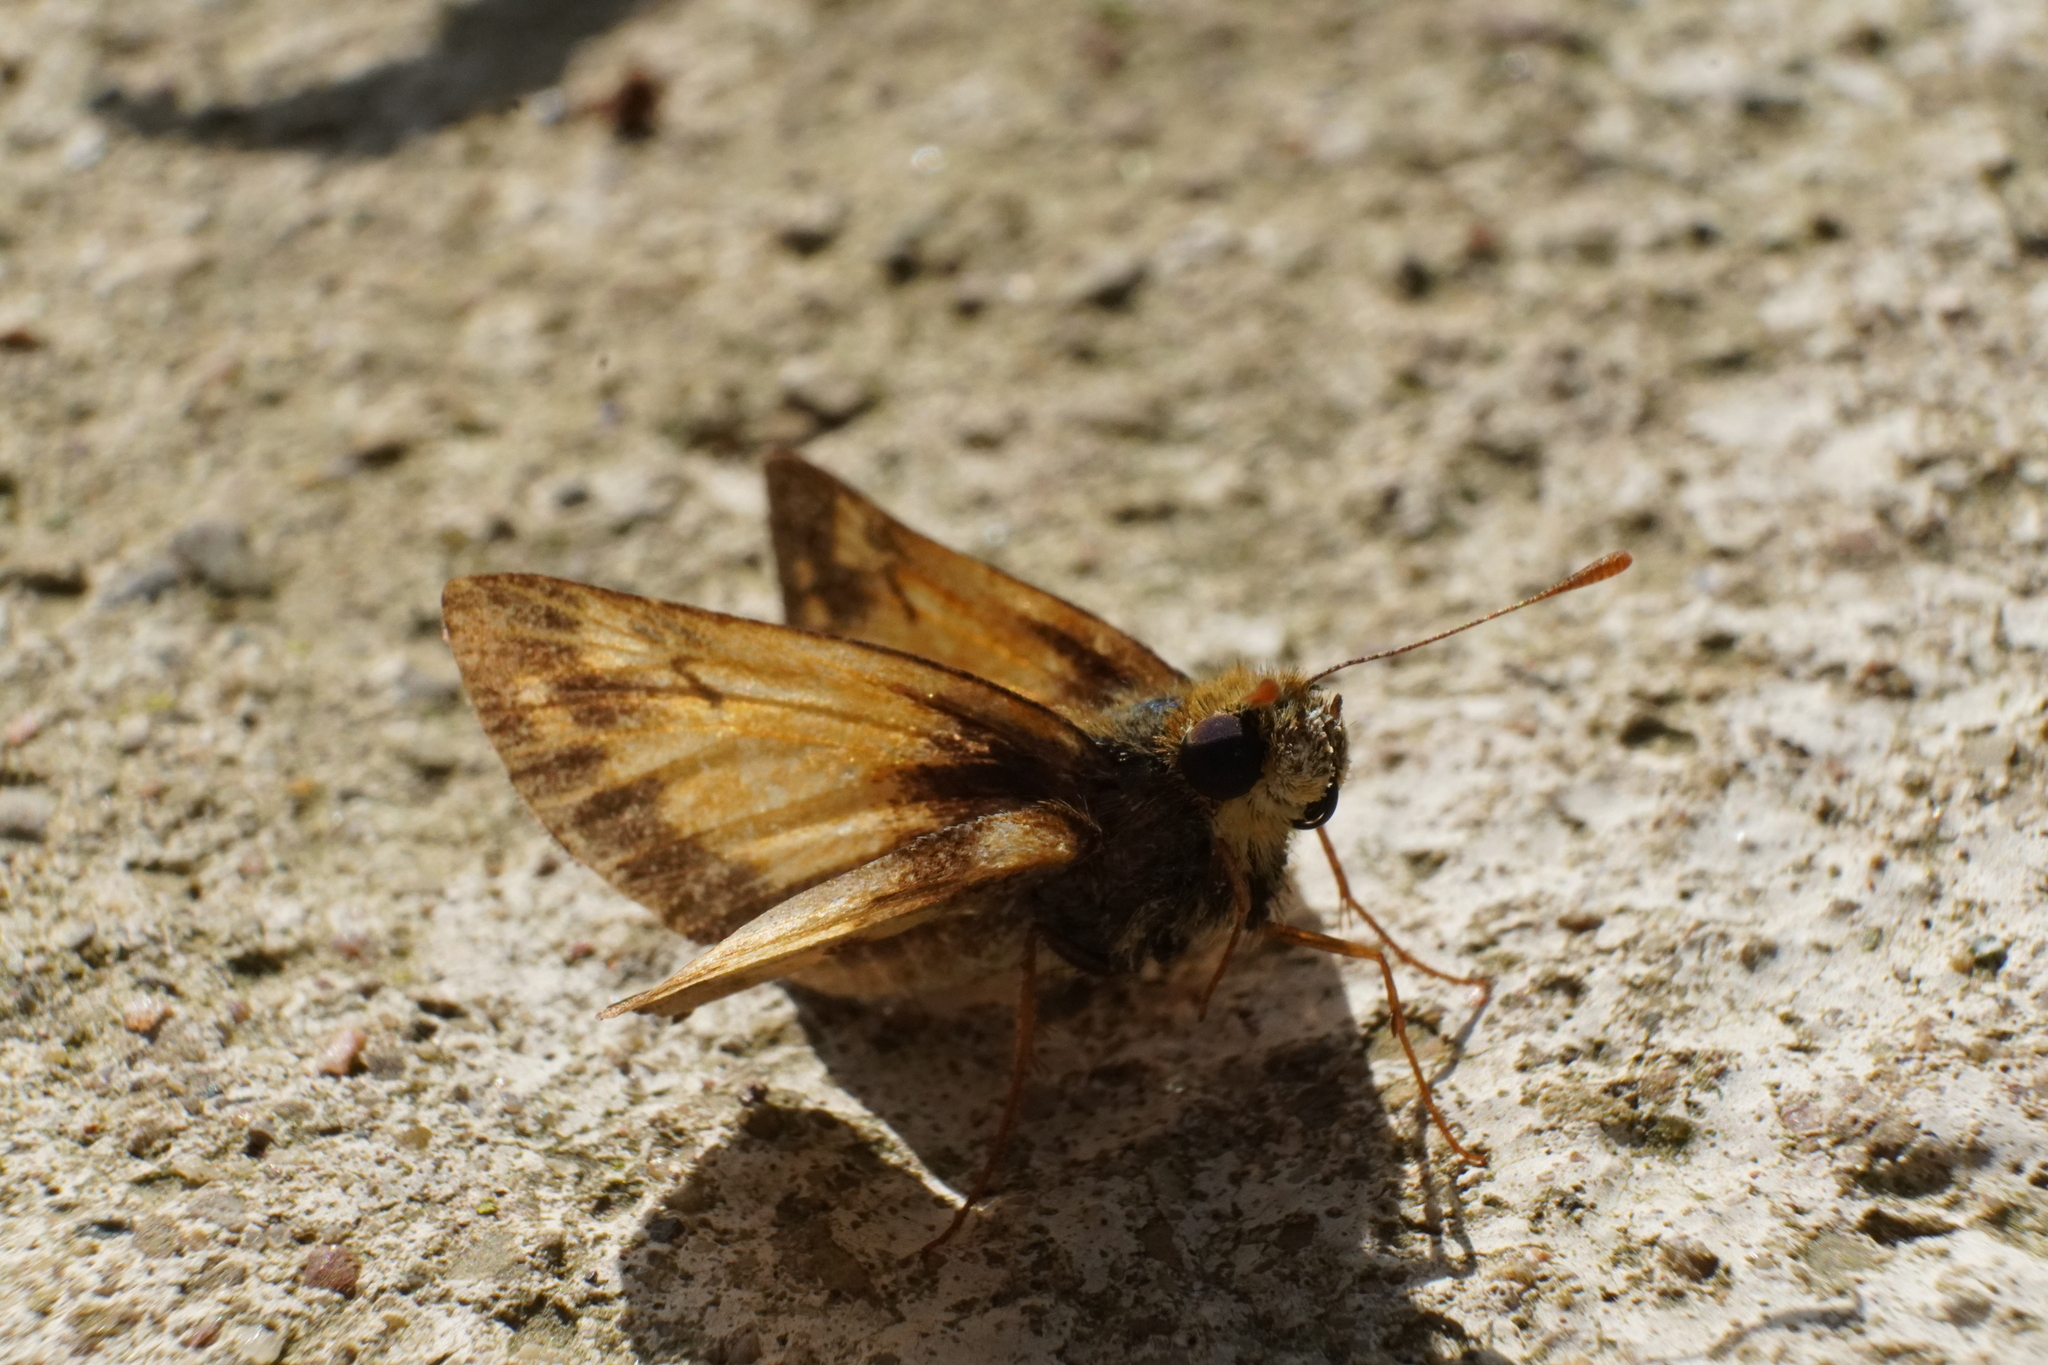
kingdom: Animalia
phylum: Arthropoda
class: Insecta
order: Lepidoptera
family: Hesperiidae
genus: Lon
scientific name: Lon zabulon
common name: Zabulon skipper
